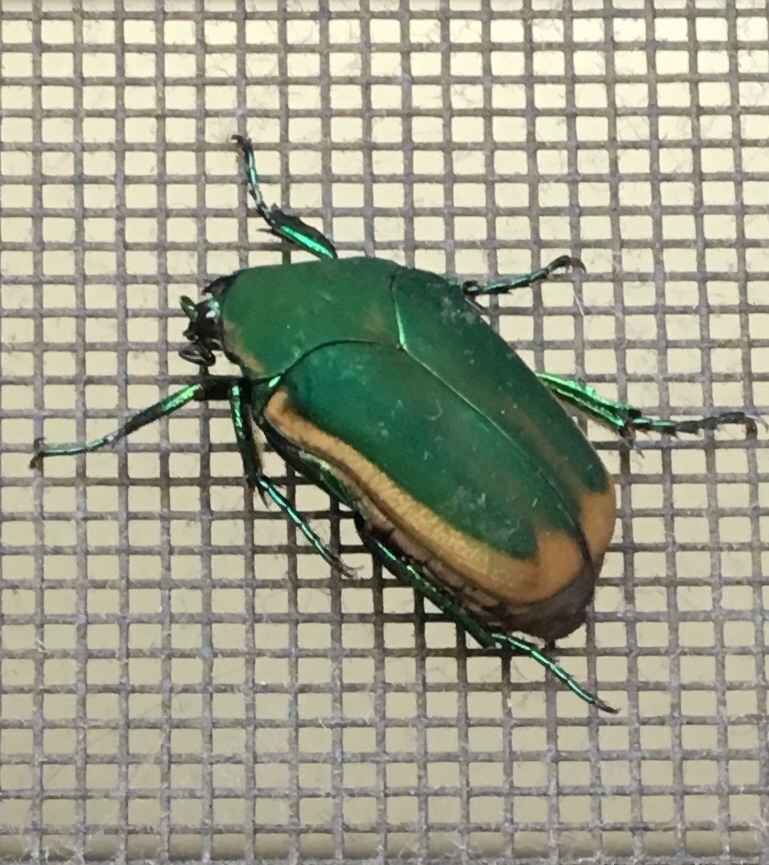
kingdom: Animalia
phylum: Arthropoda
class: Insecta
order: Coleoptera
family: Scarabaeidae
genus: Cotinis
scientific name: Cotinis mutabilis
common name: Figeater beetle
